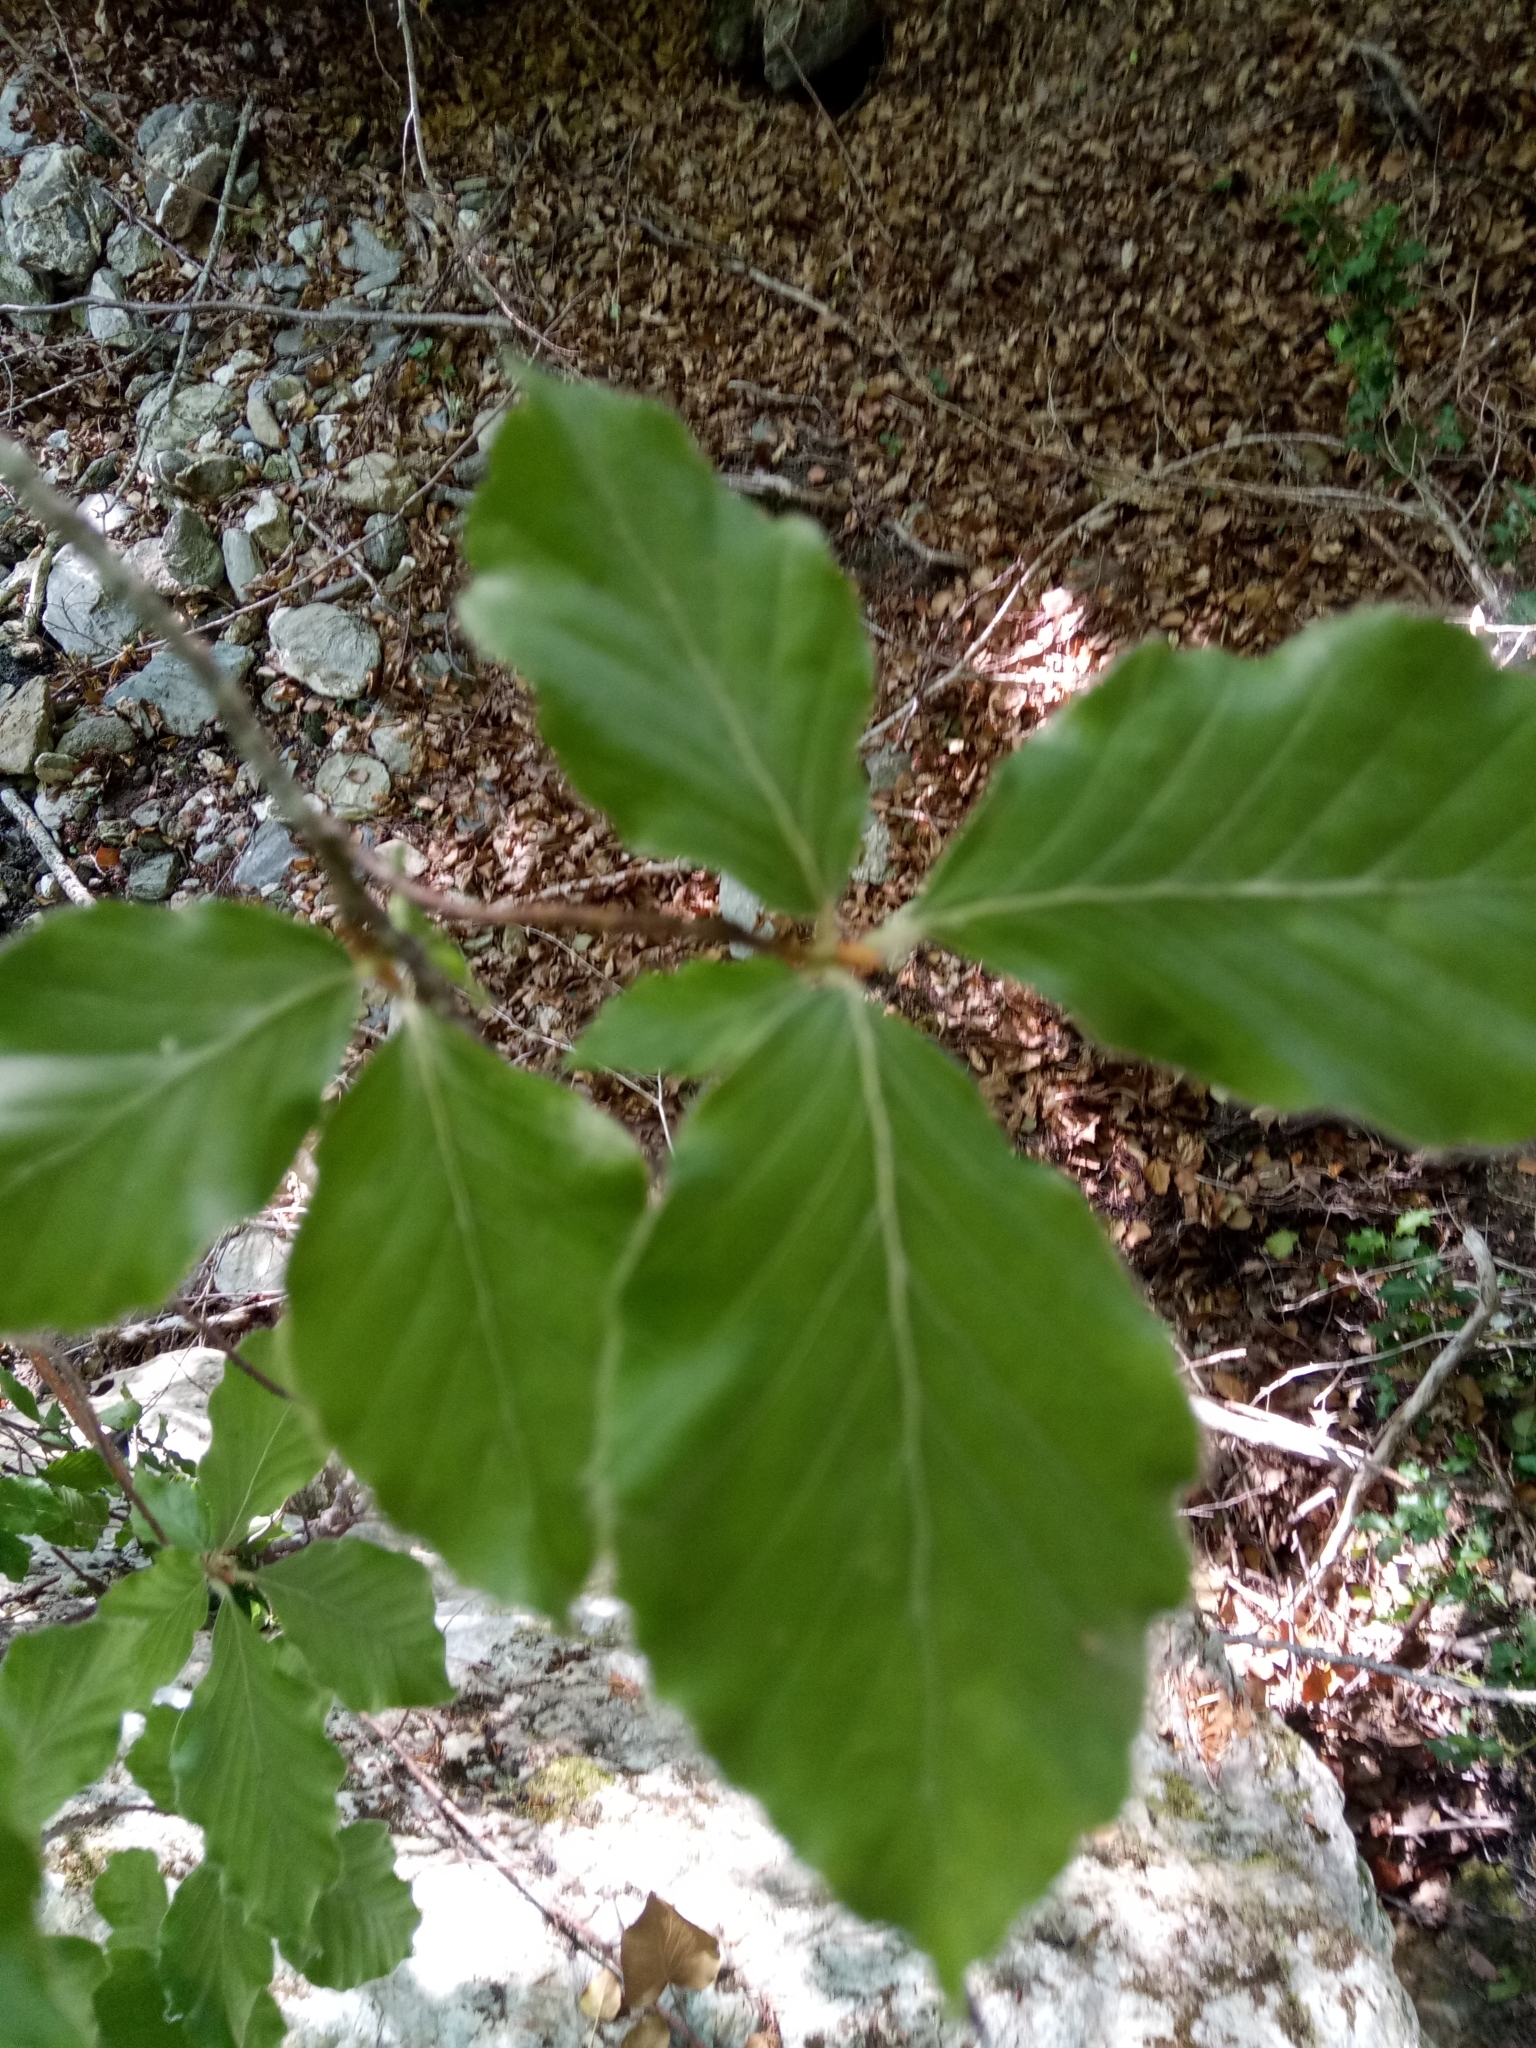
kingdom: Plantae
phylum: Tracheophyta
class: Magnoliopsida
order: Fagales
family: Fagaceae
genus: Fagus
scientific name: Fagus sylvatica
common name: Beech
